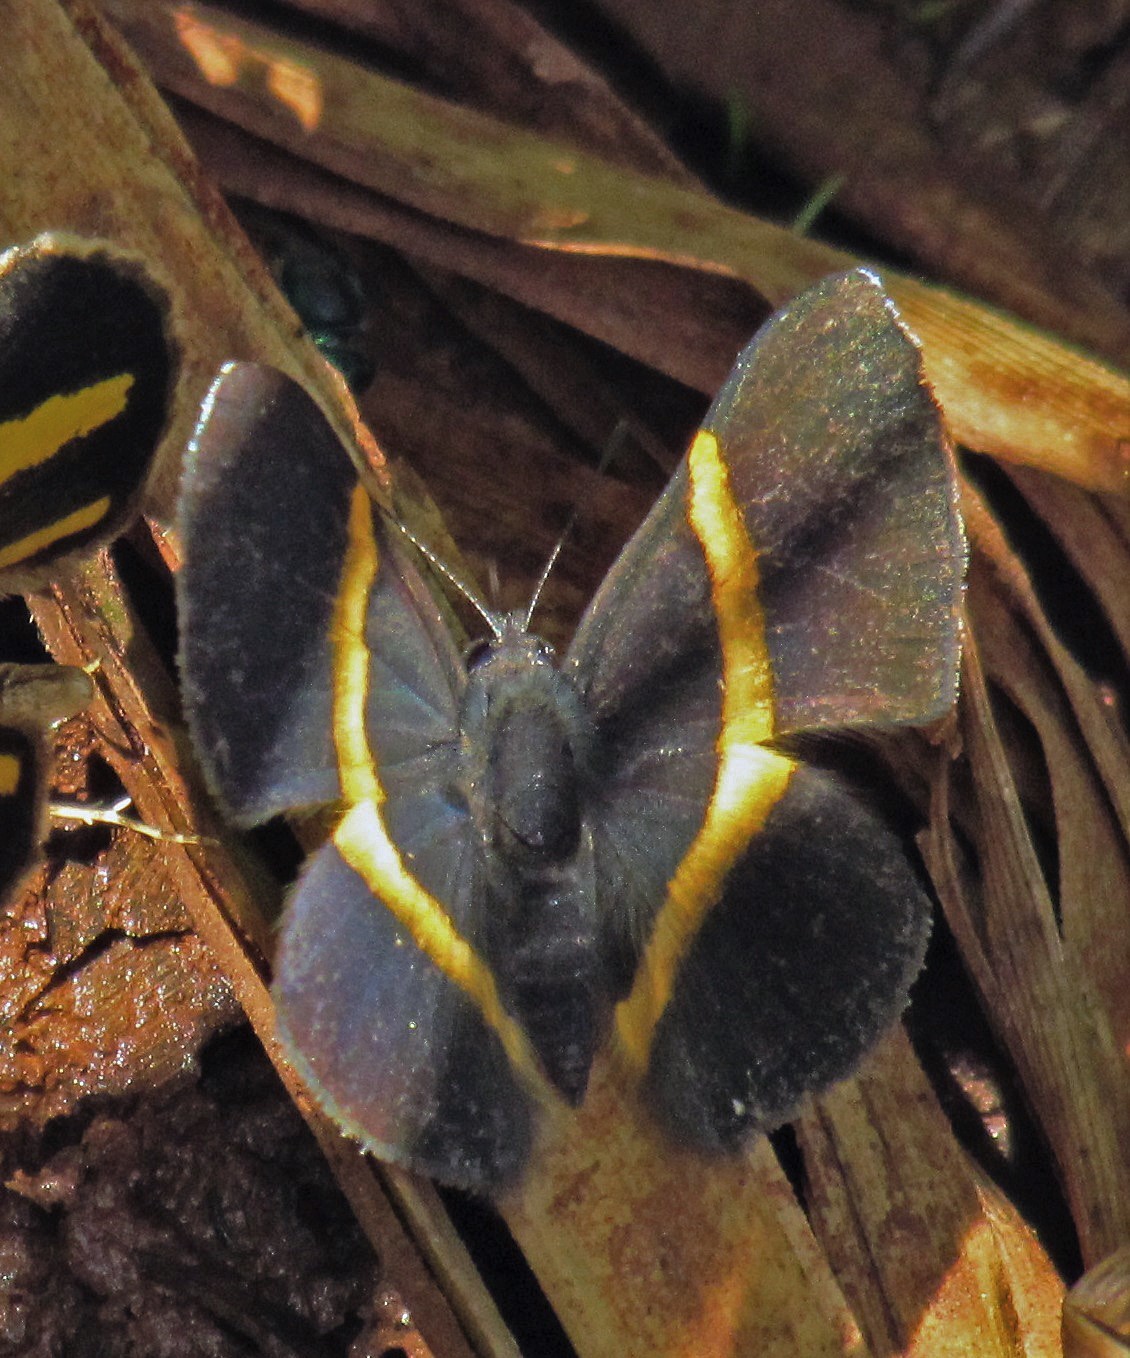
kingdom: Animalia
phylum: Arthropoda
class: Insecta
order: Lepidoptera
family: Riodinidae
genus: Parcella
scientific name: Parcella amarynthina
